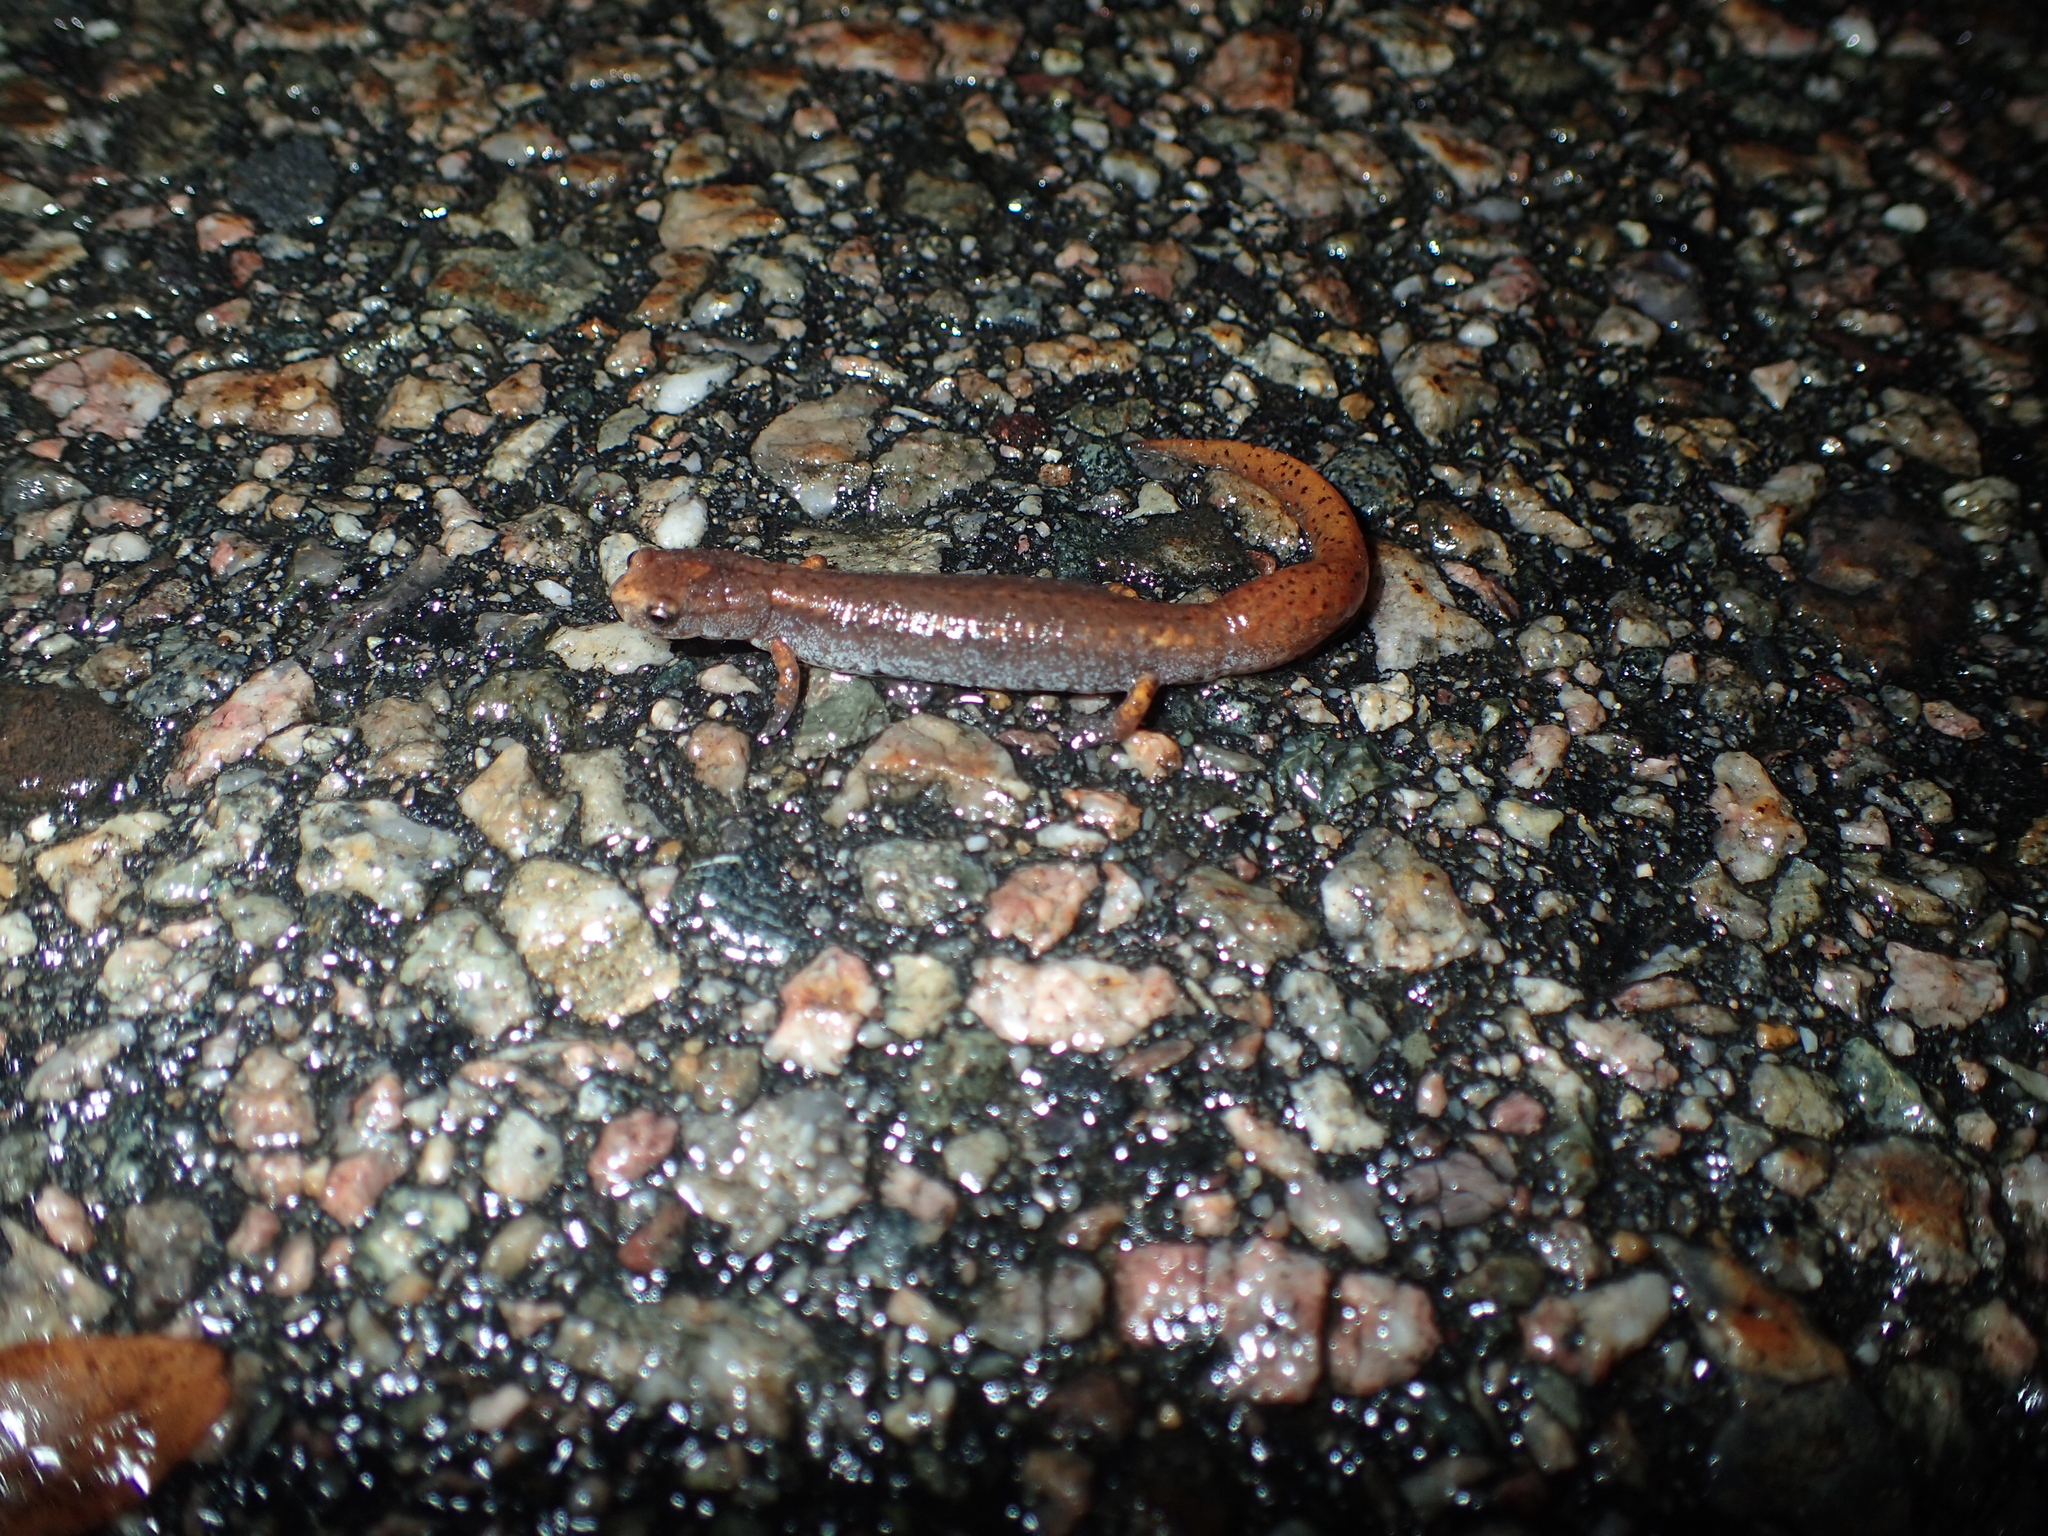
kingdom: Animalia
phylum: Chordata
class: Amphibia
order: Caudata
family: Plethodontidae
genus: Hemidactylium
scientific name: Hemidactylium scutatum
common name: Four-toed salamander
